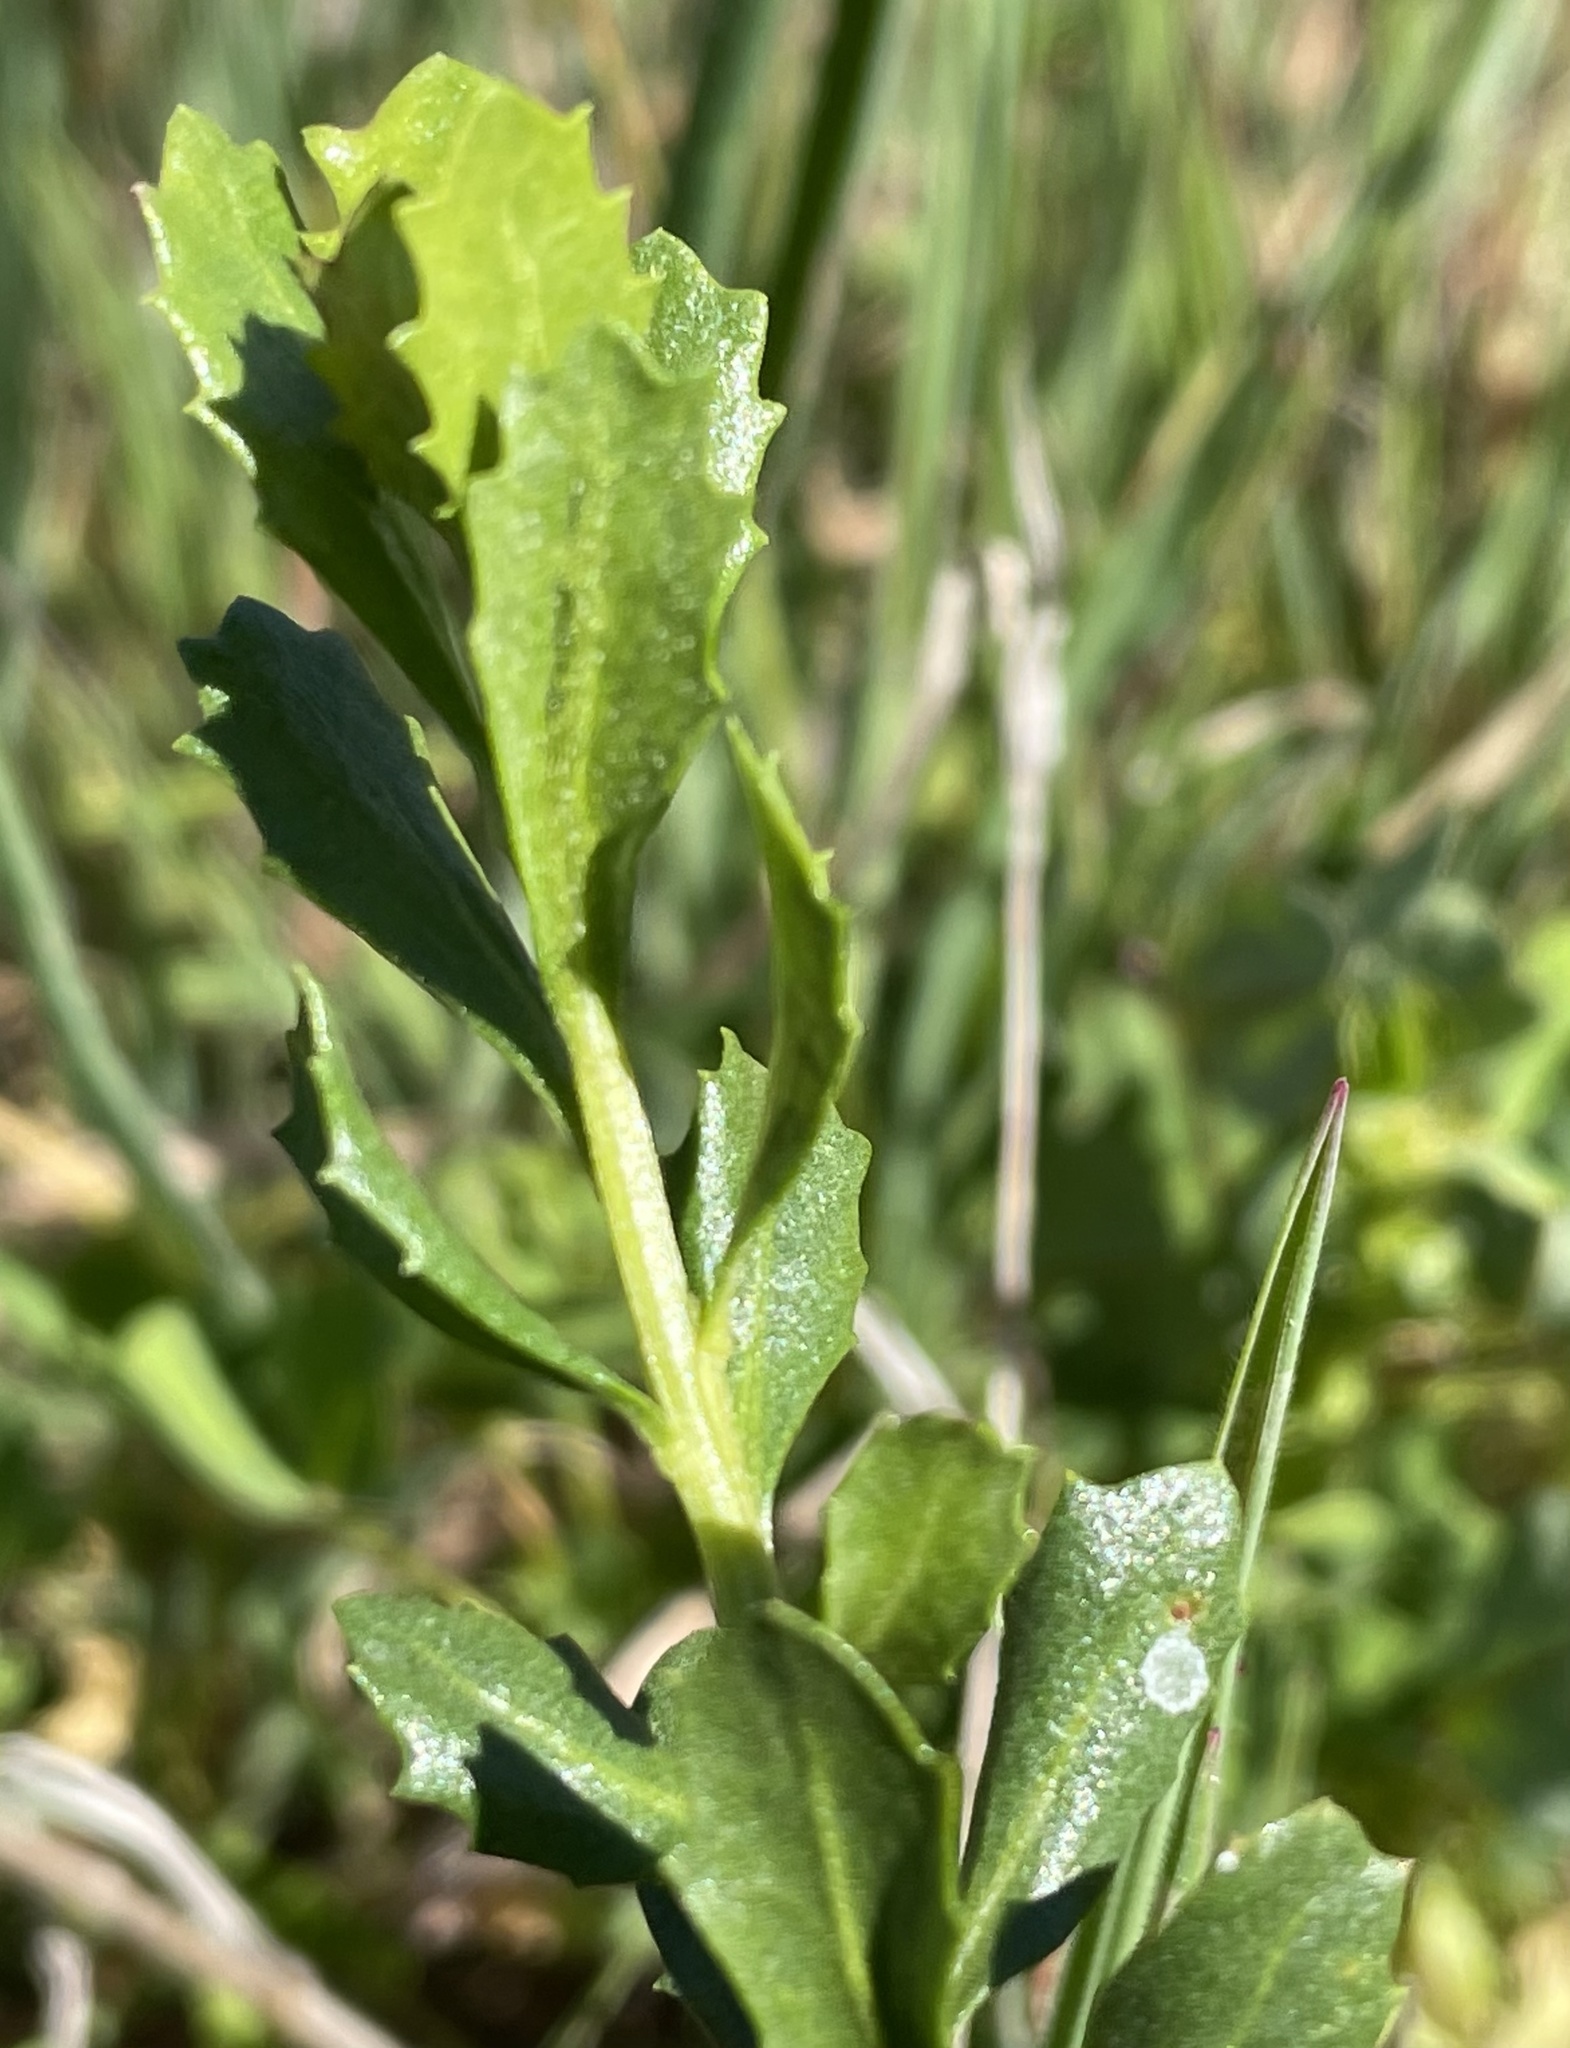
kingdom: Animalia
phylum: Arthropoda
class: Insecta
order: Diptera
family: Cecidomyiidae
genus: Rhopalomyia
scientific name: Rhopalomyia californica
